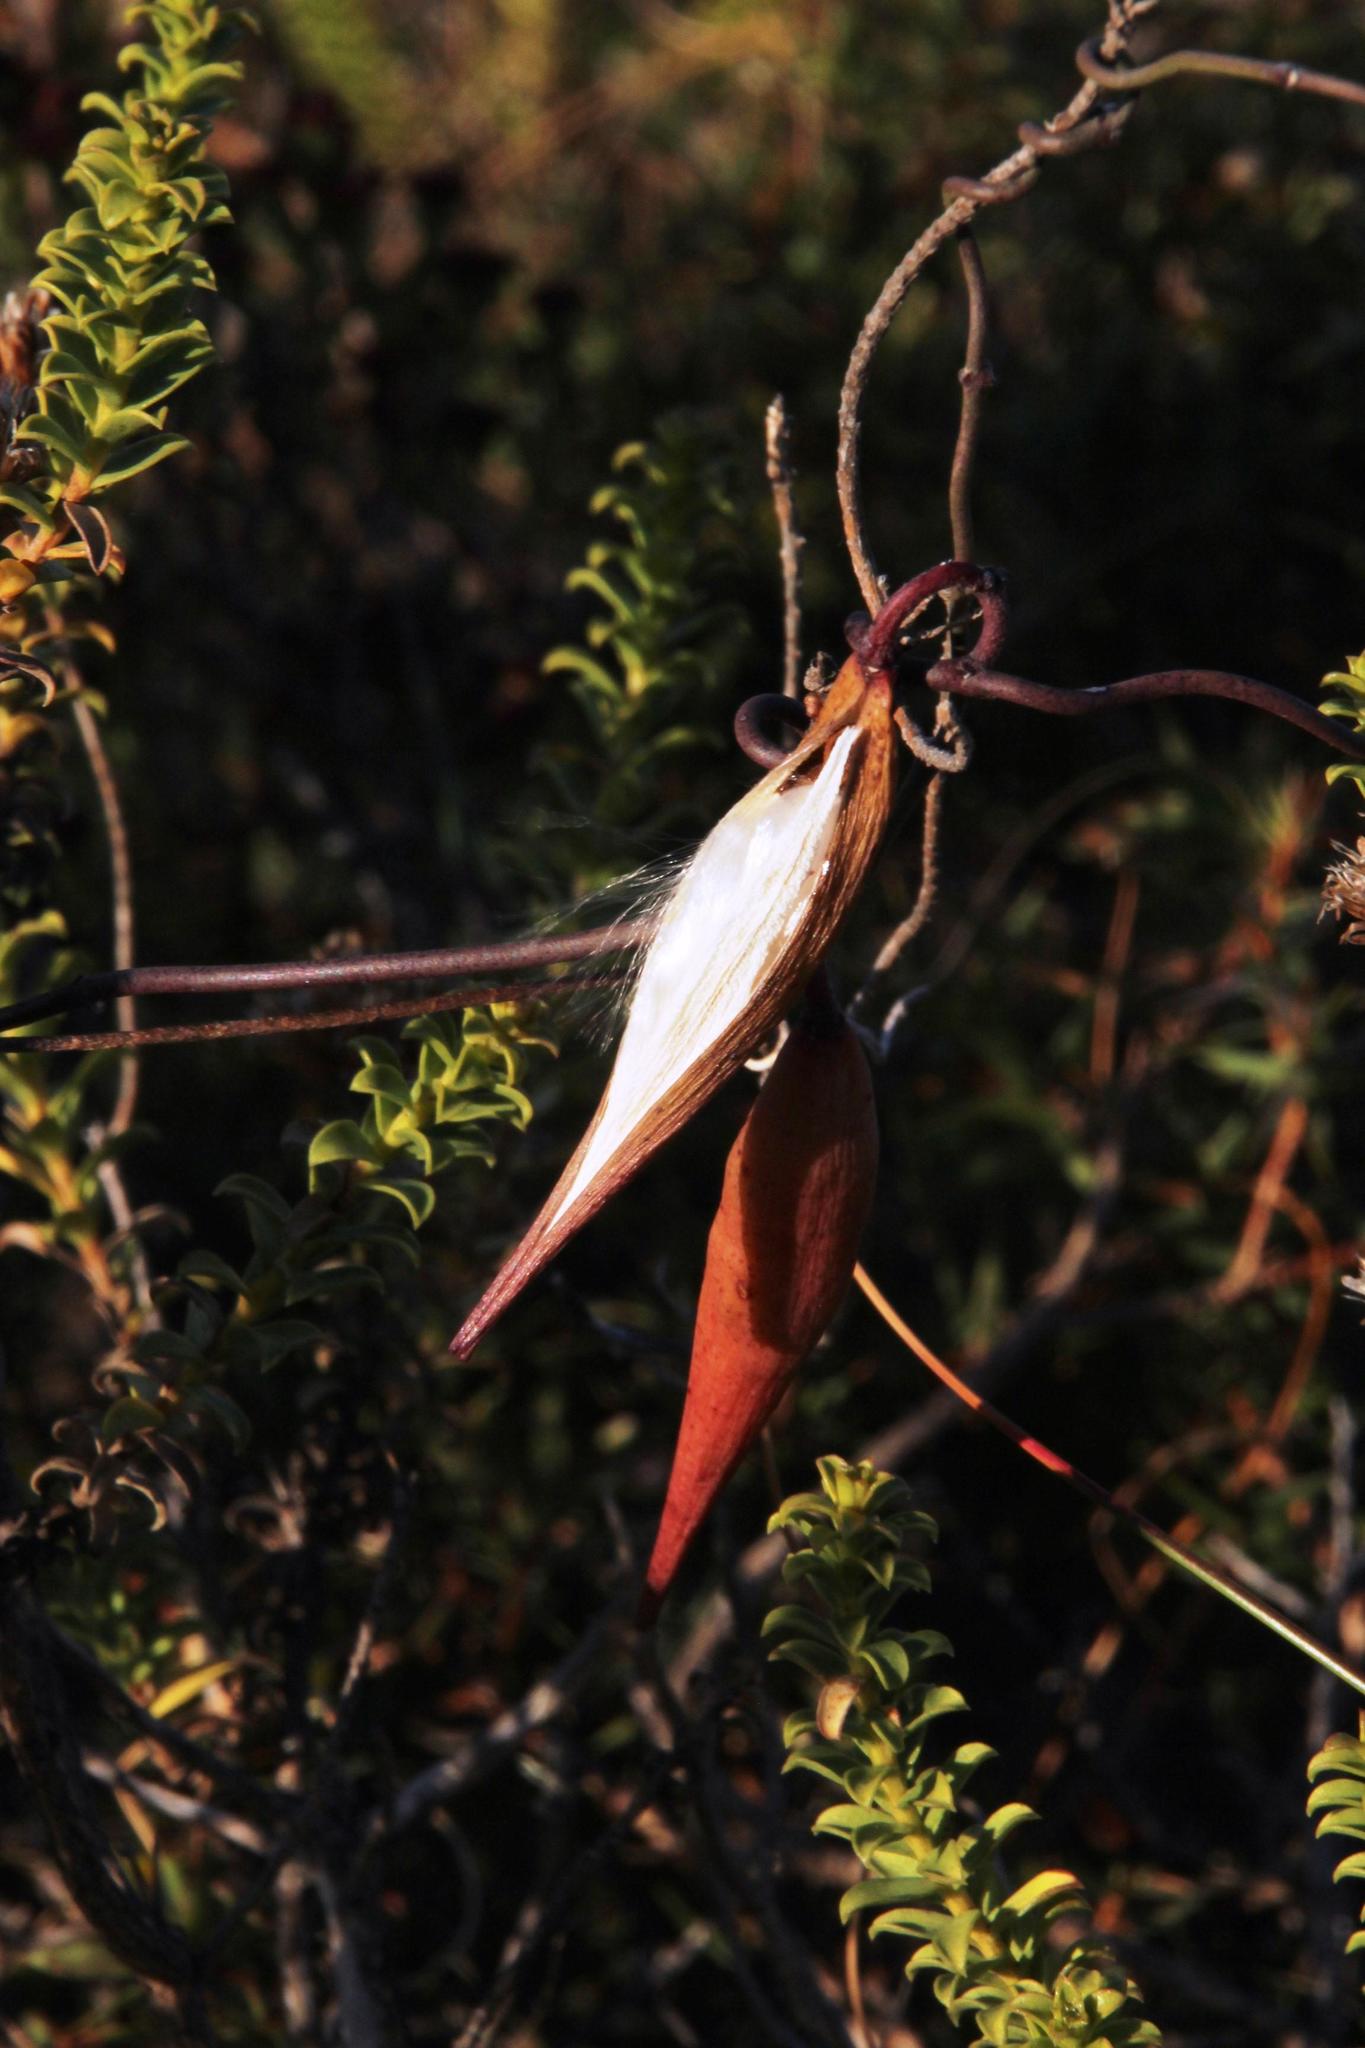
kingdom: Plantae
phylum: Tracheophyta
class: Magnoliopsida
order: Gentianales
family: Apocynaceae
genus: Microloma
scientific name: Microloma sagittatum
